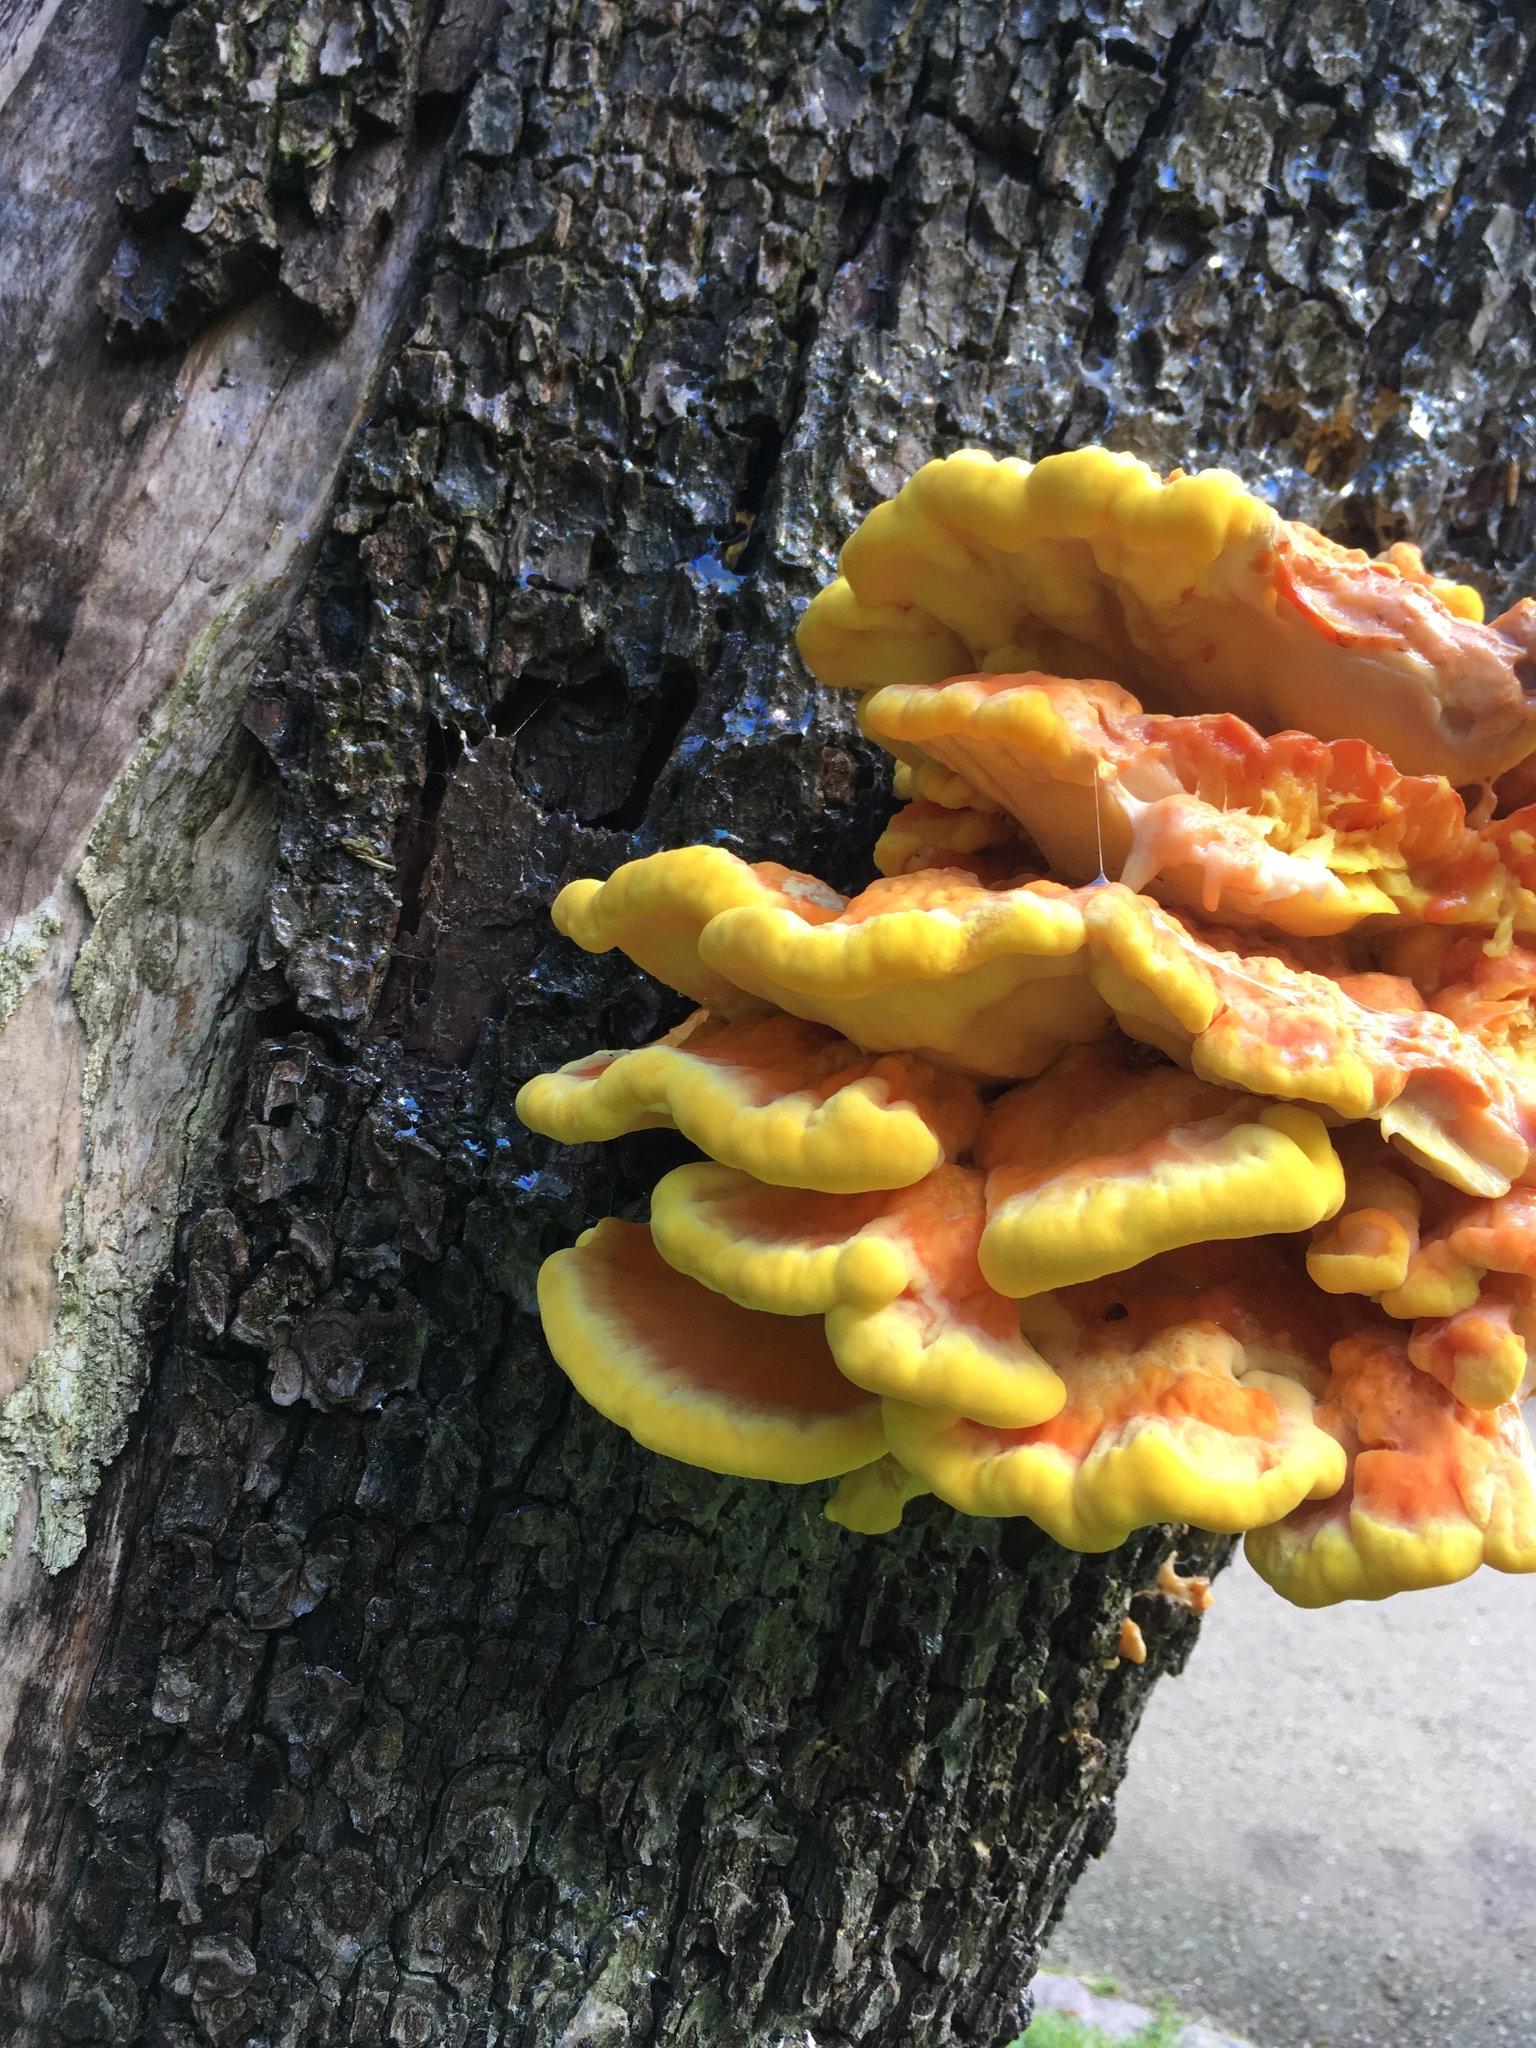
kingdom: Fungi
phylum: Basidiomycota
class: Agaricomycetes
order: Polyporales
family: Laetiporaceae
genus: Laetiporus
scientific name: Laetiporus sulphureus
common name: Chicken of the woods
